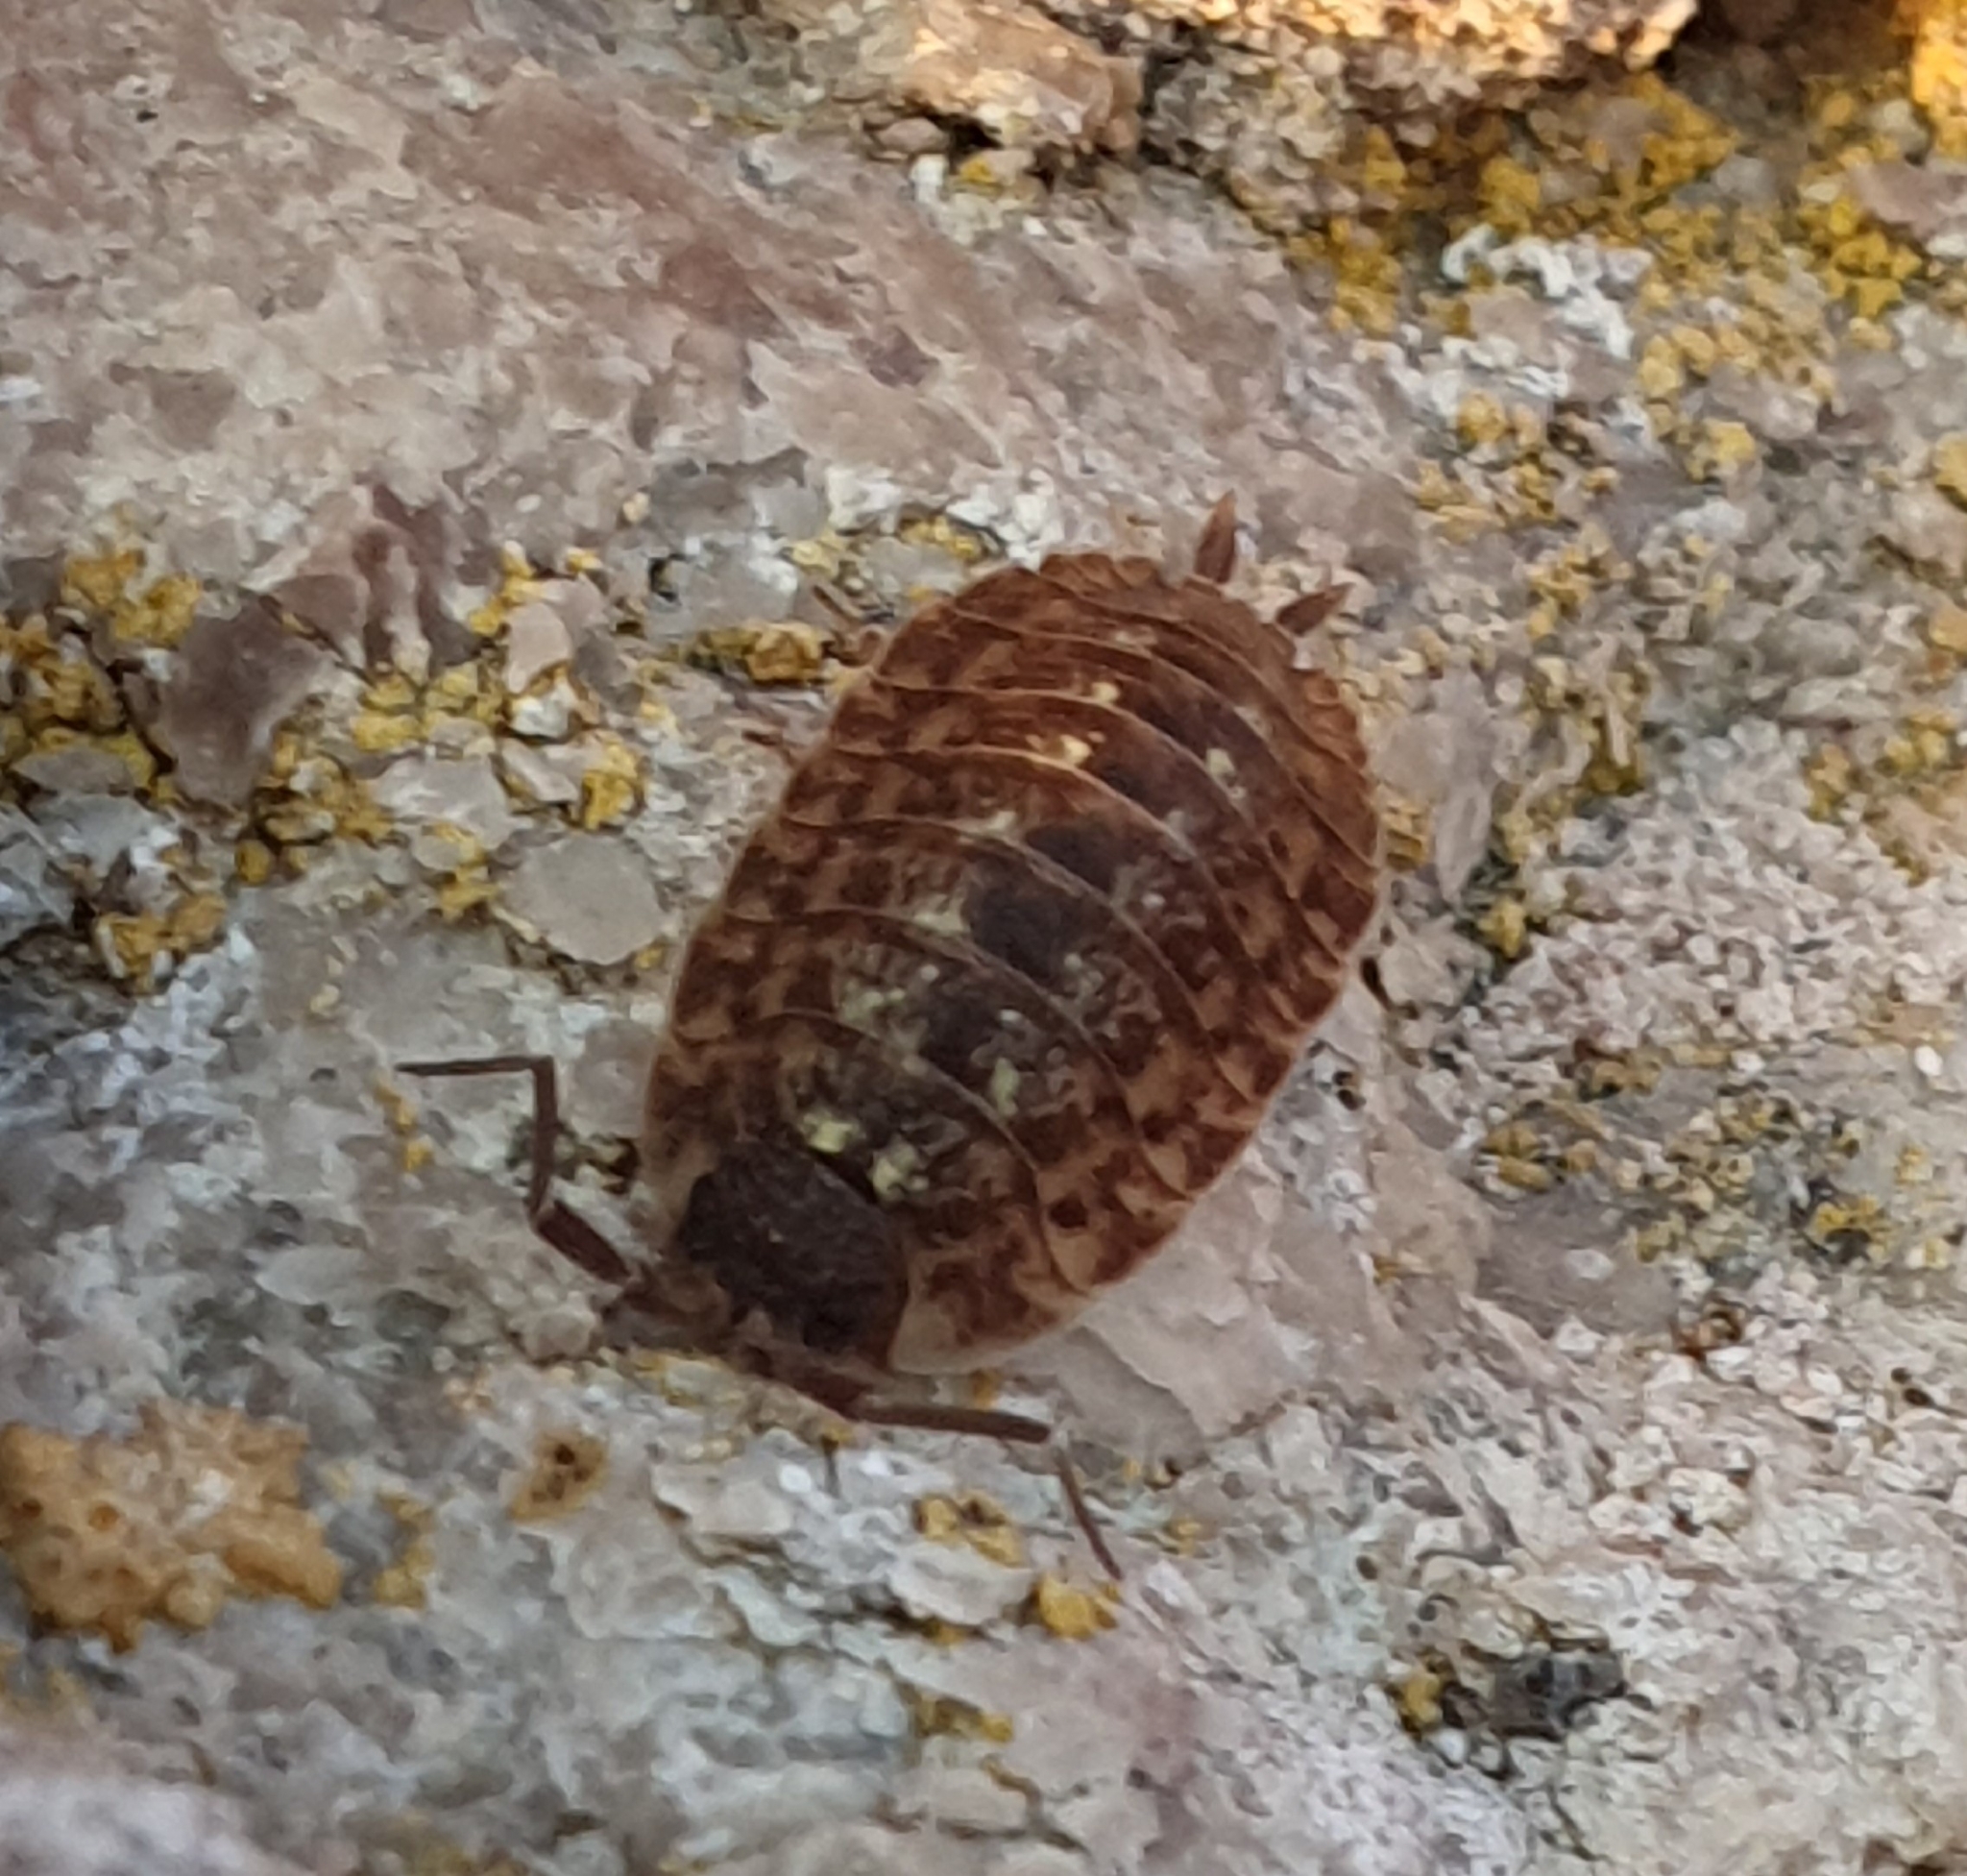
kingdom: Animalia
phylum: Arthropoda
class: Malacostraca
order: Isopoda
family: Porcellionidae
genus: Porcellio
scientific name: Porcellio spinicornis
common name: Painted woodlouse
